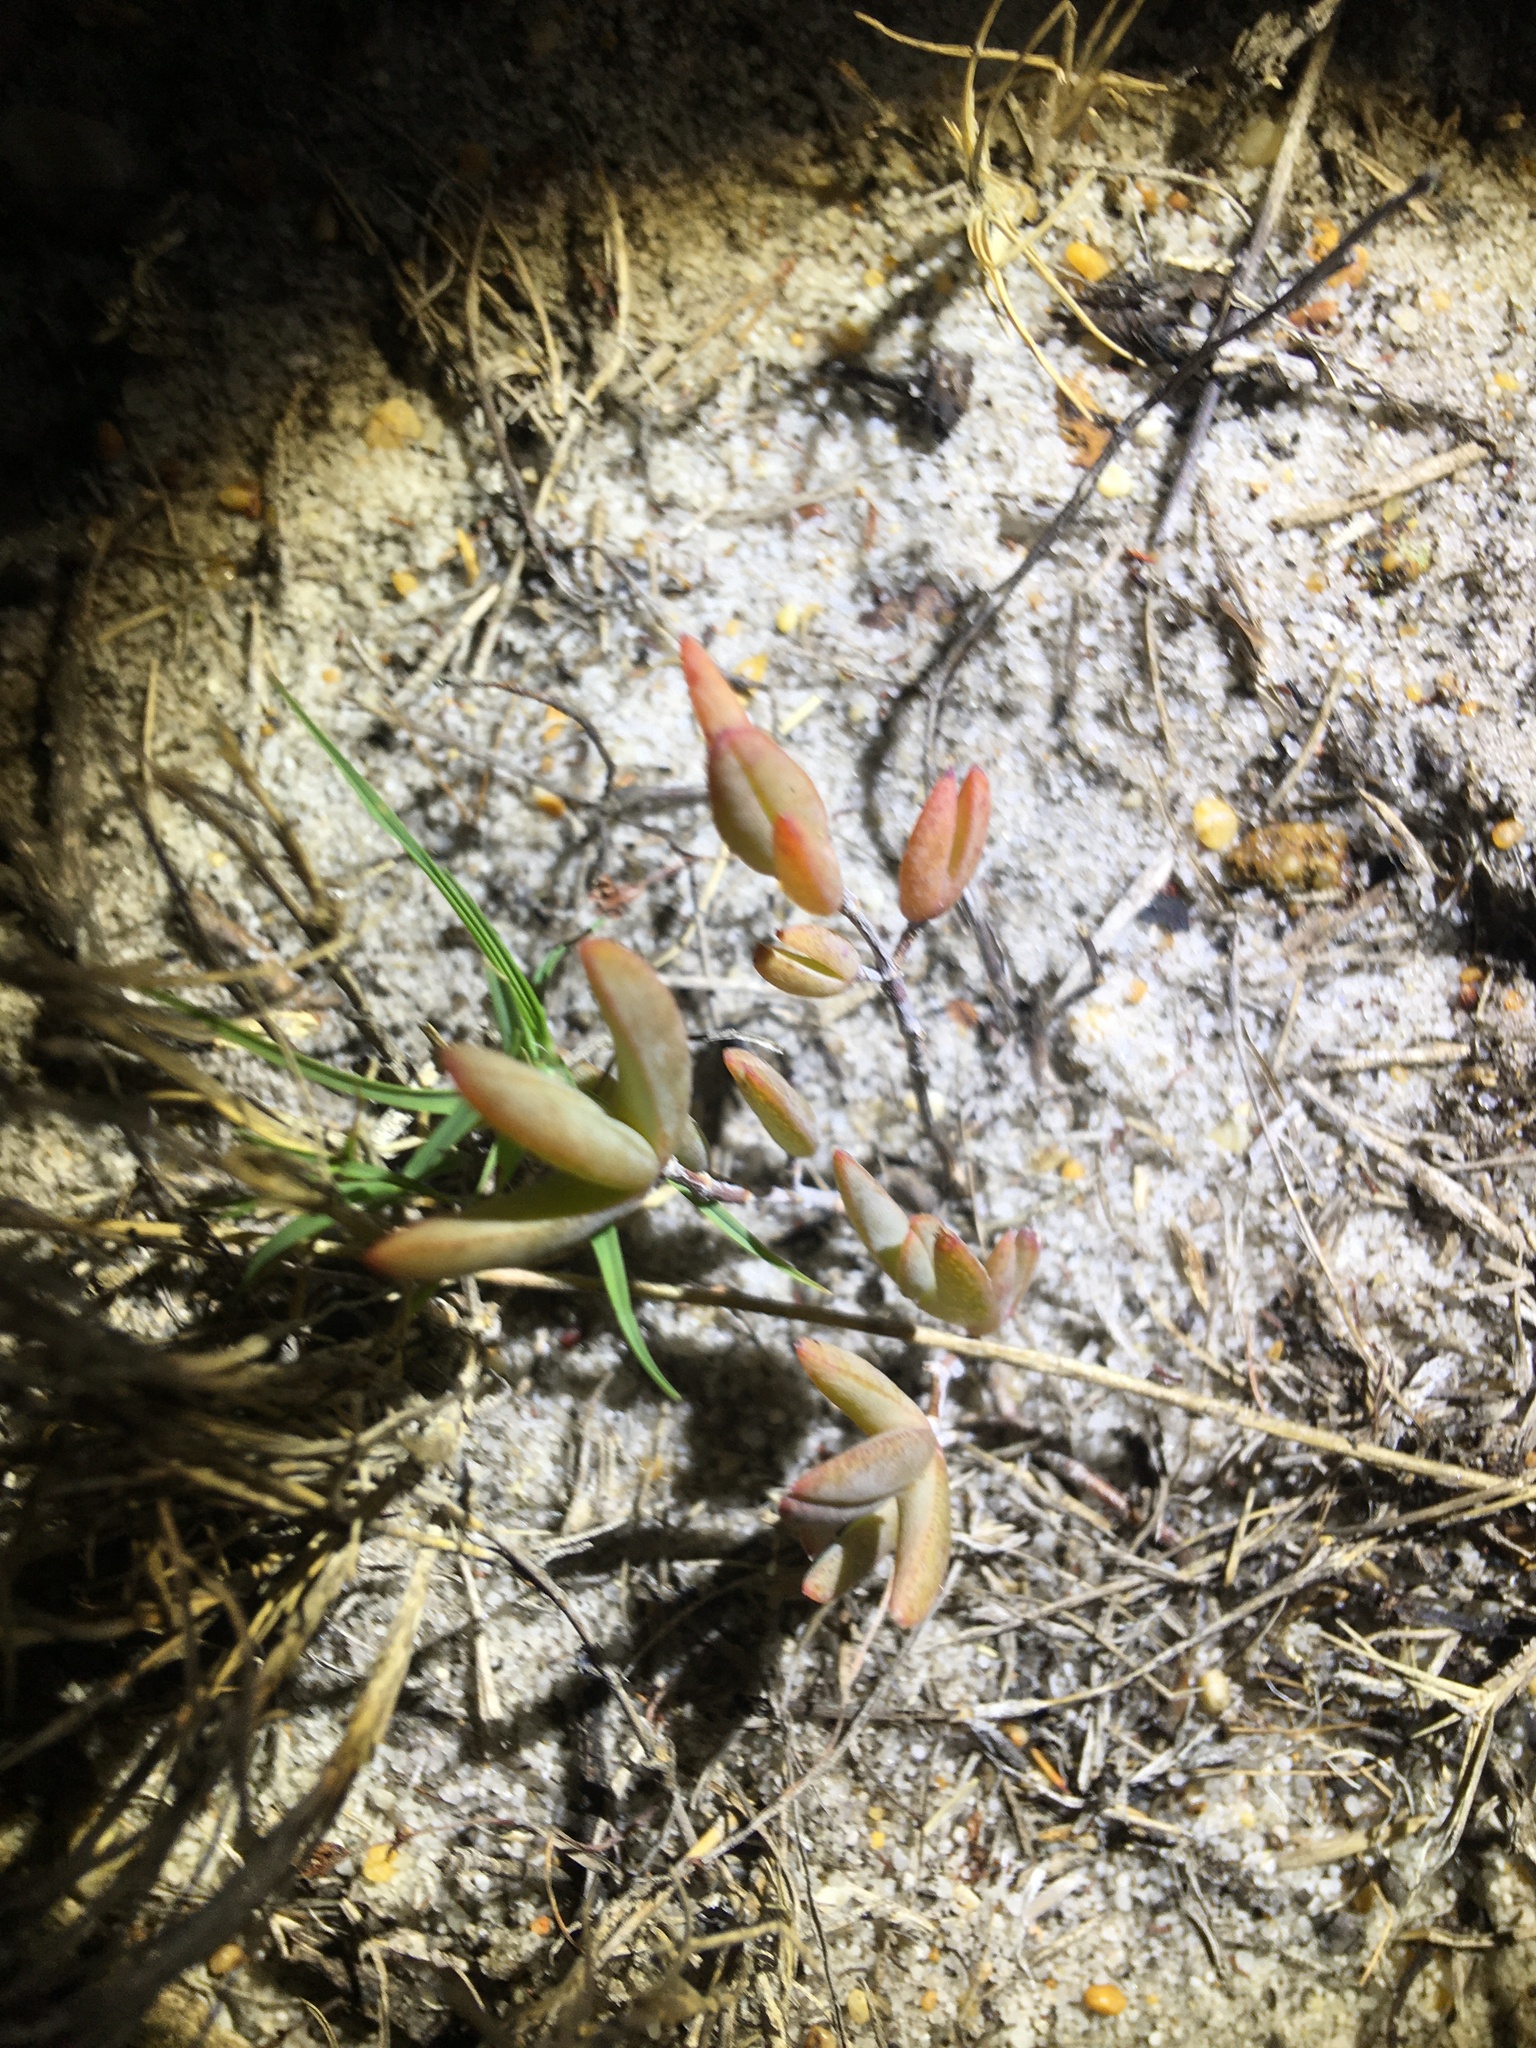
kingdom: Plantae
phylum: Tracheophyta
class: Magnoliopsida
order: Caryophyllales
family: Aizoaceae
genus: Lampranthus
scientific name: Lampranthus calcaratus
